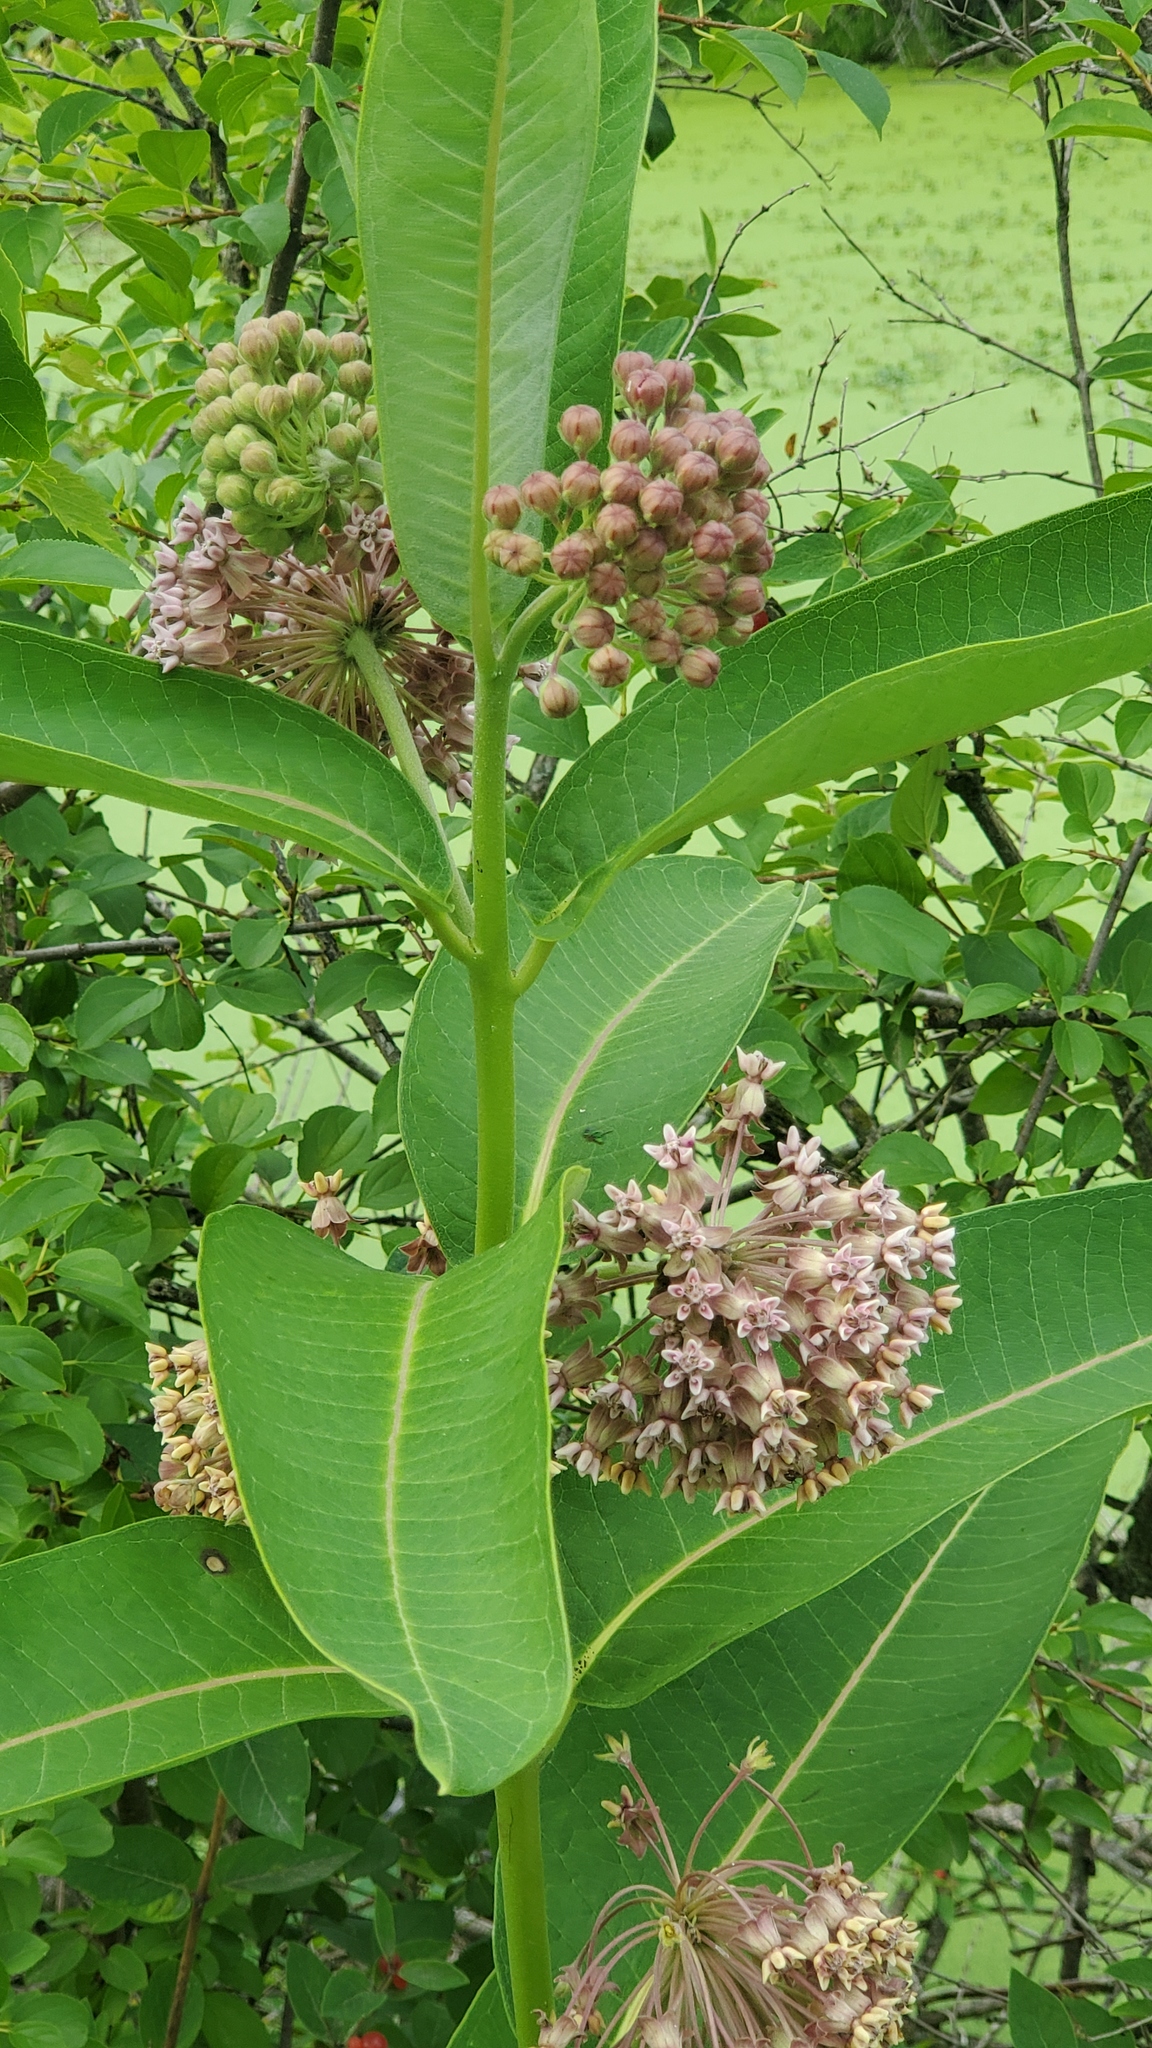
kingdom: Plantae
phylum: Tracheophyta
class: Magnoliopsida
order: Gentianales
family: Apocynaceae
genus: Asclepias
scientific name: Asclepias syriaca
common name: Common milkweed
